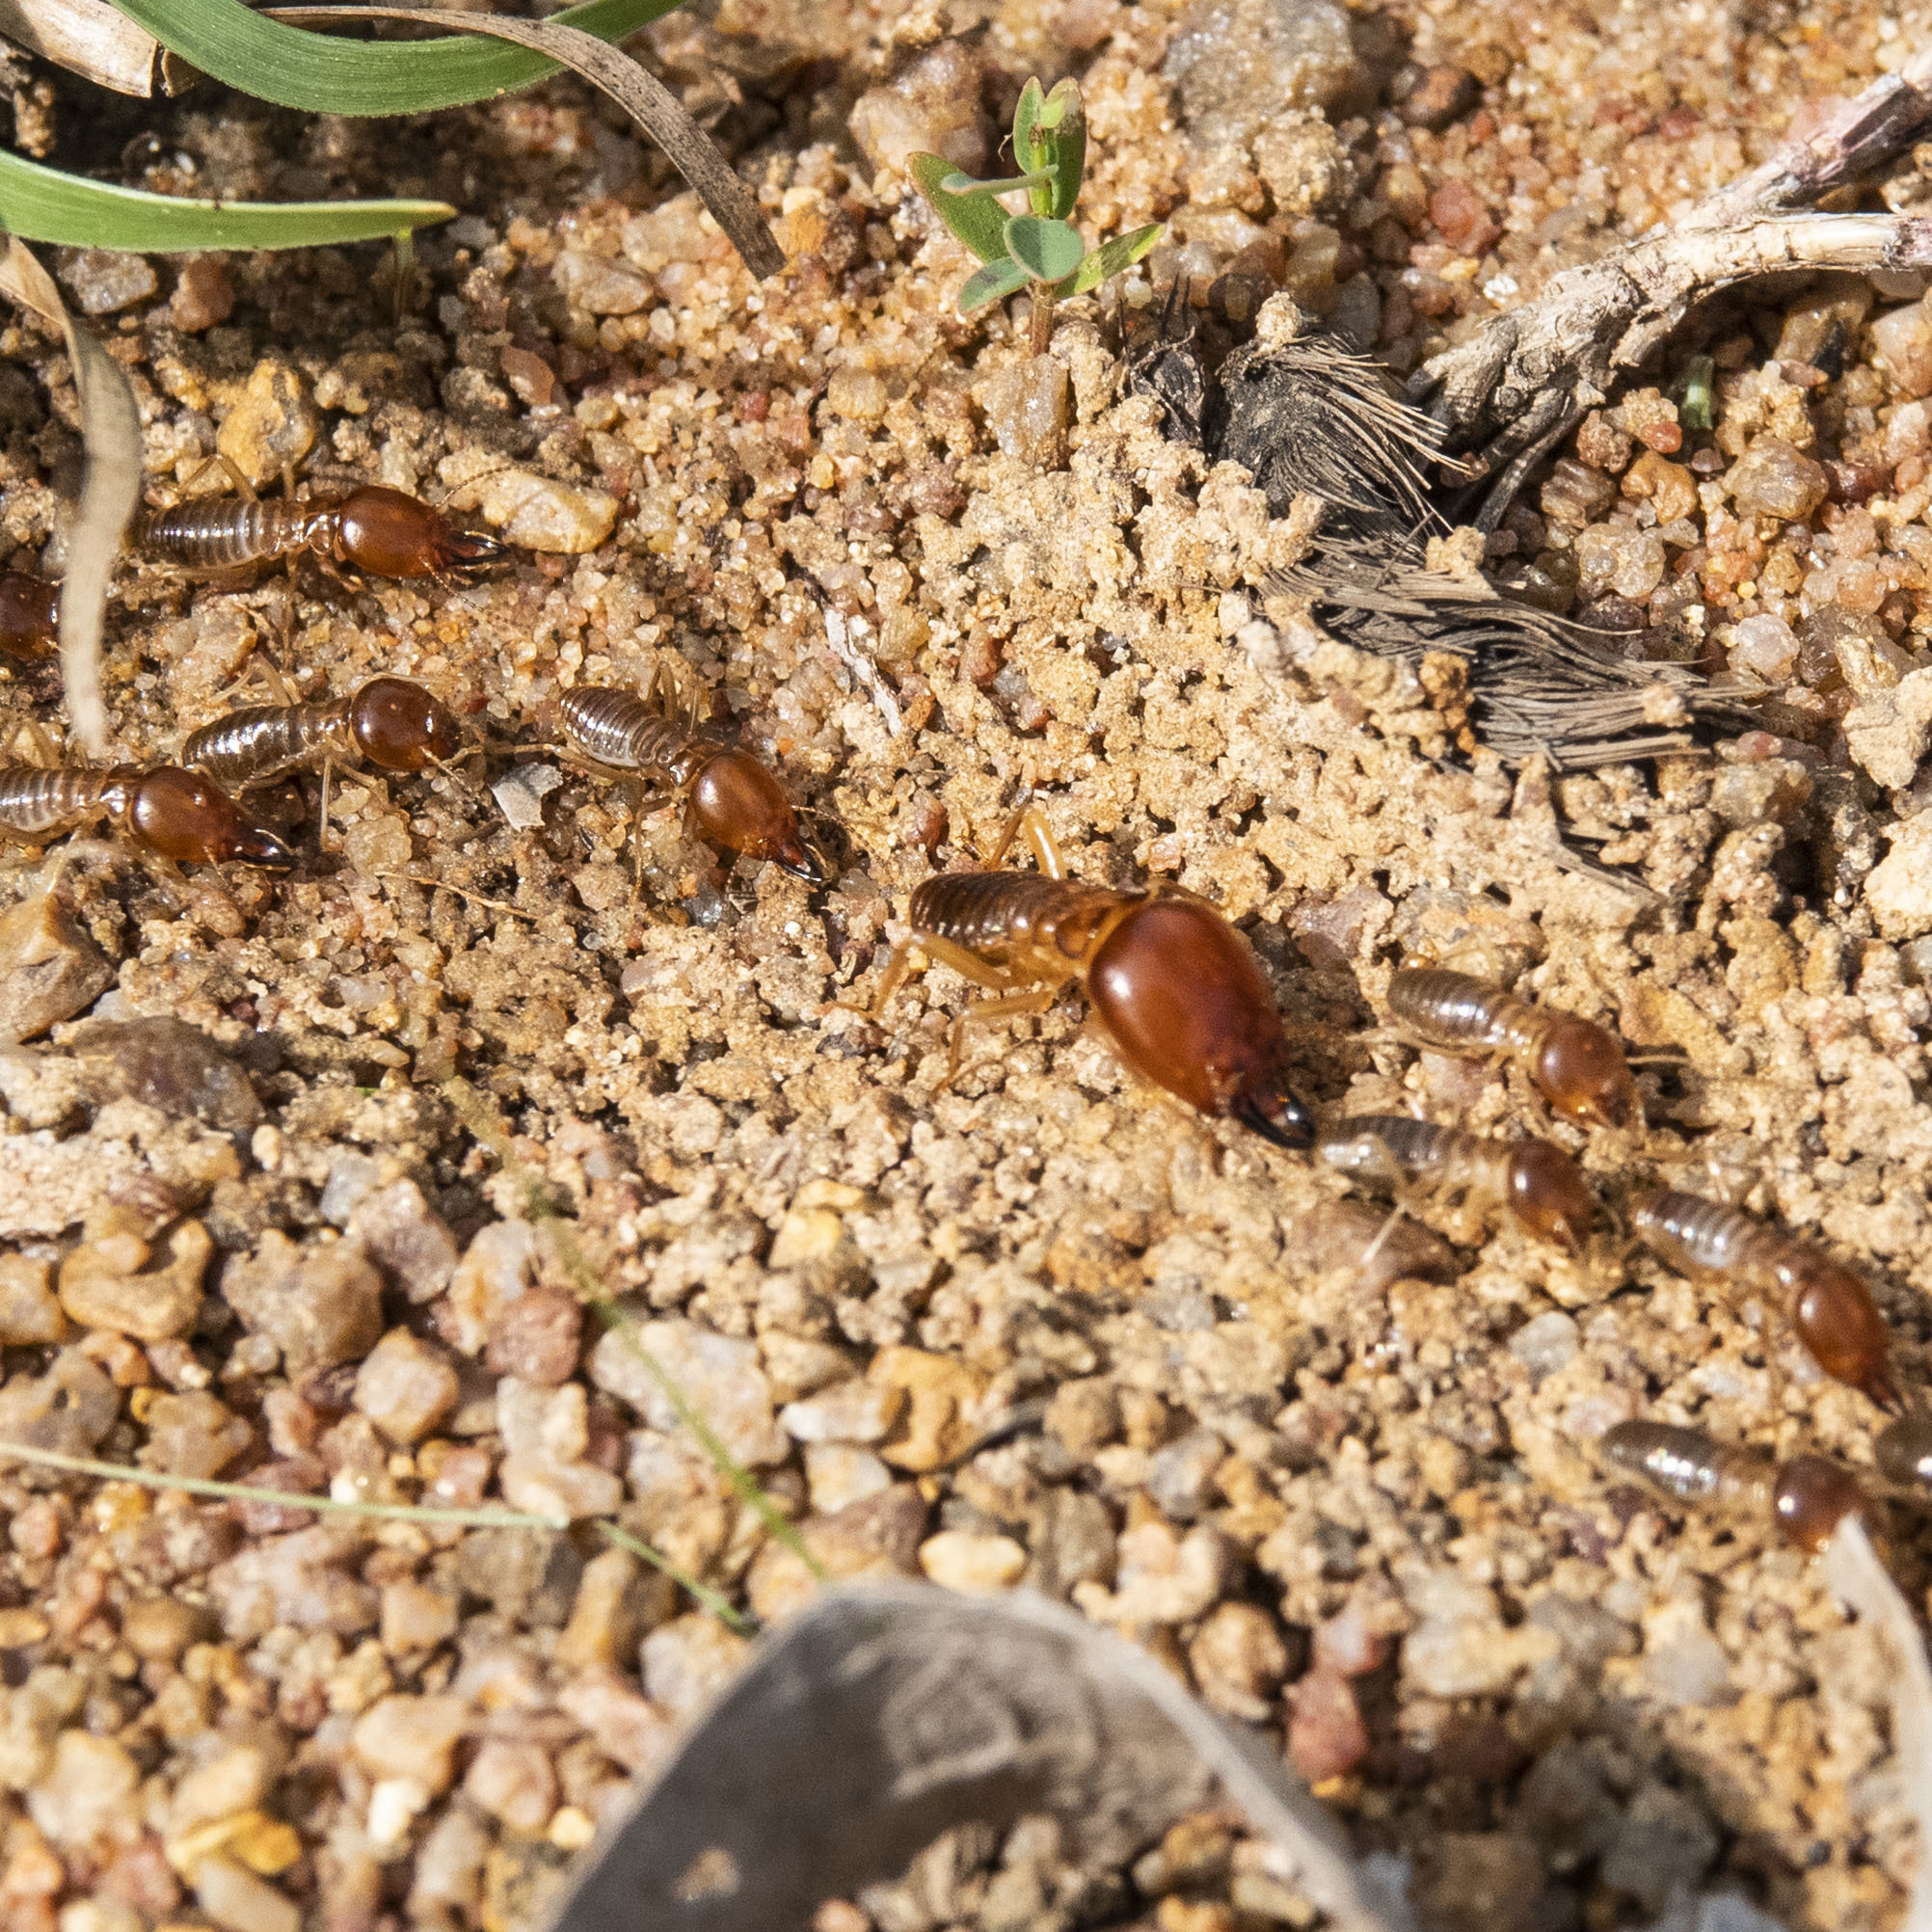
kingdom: Animalia
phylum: Arthropoda
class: Insecta
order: Blattodea
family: Termitidae
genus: Macrotermes
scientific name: Macrotermes convulsionarius
